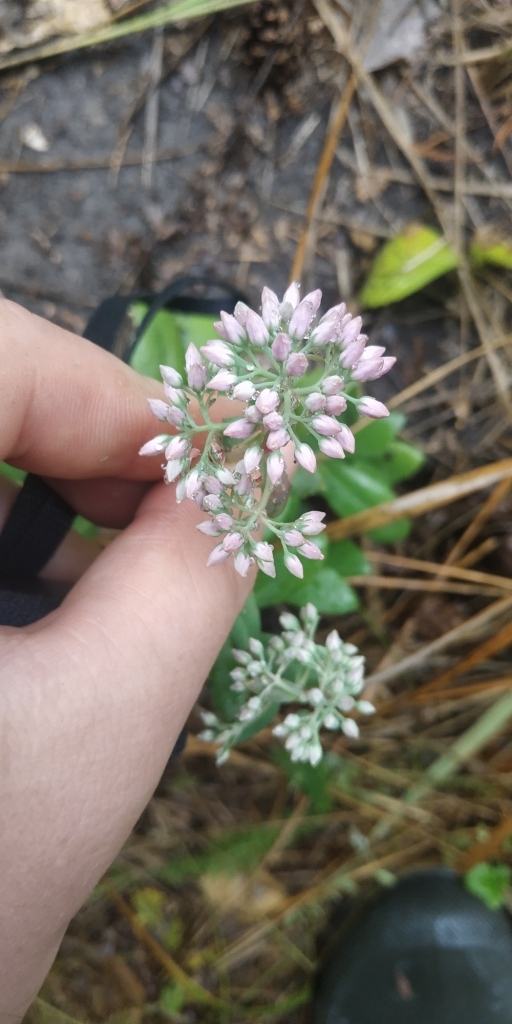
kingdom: Plantae
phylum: Tracheophyta
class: Magnoliopsida
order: Saxifragales
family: Crassulaceae
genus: Hylotelephium
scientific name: Hylotelephium telephium
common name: Live-forever
